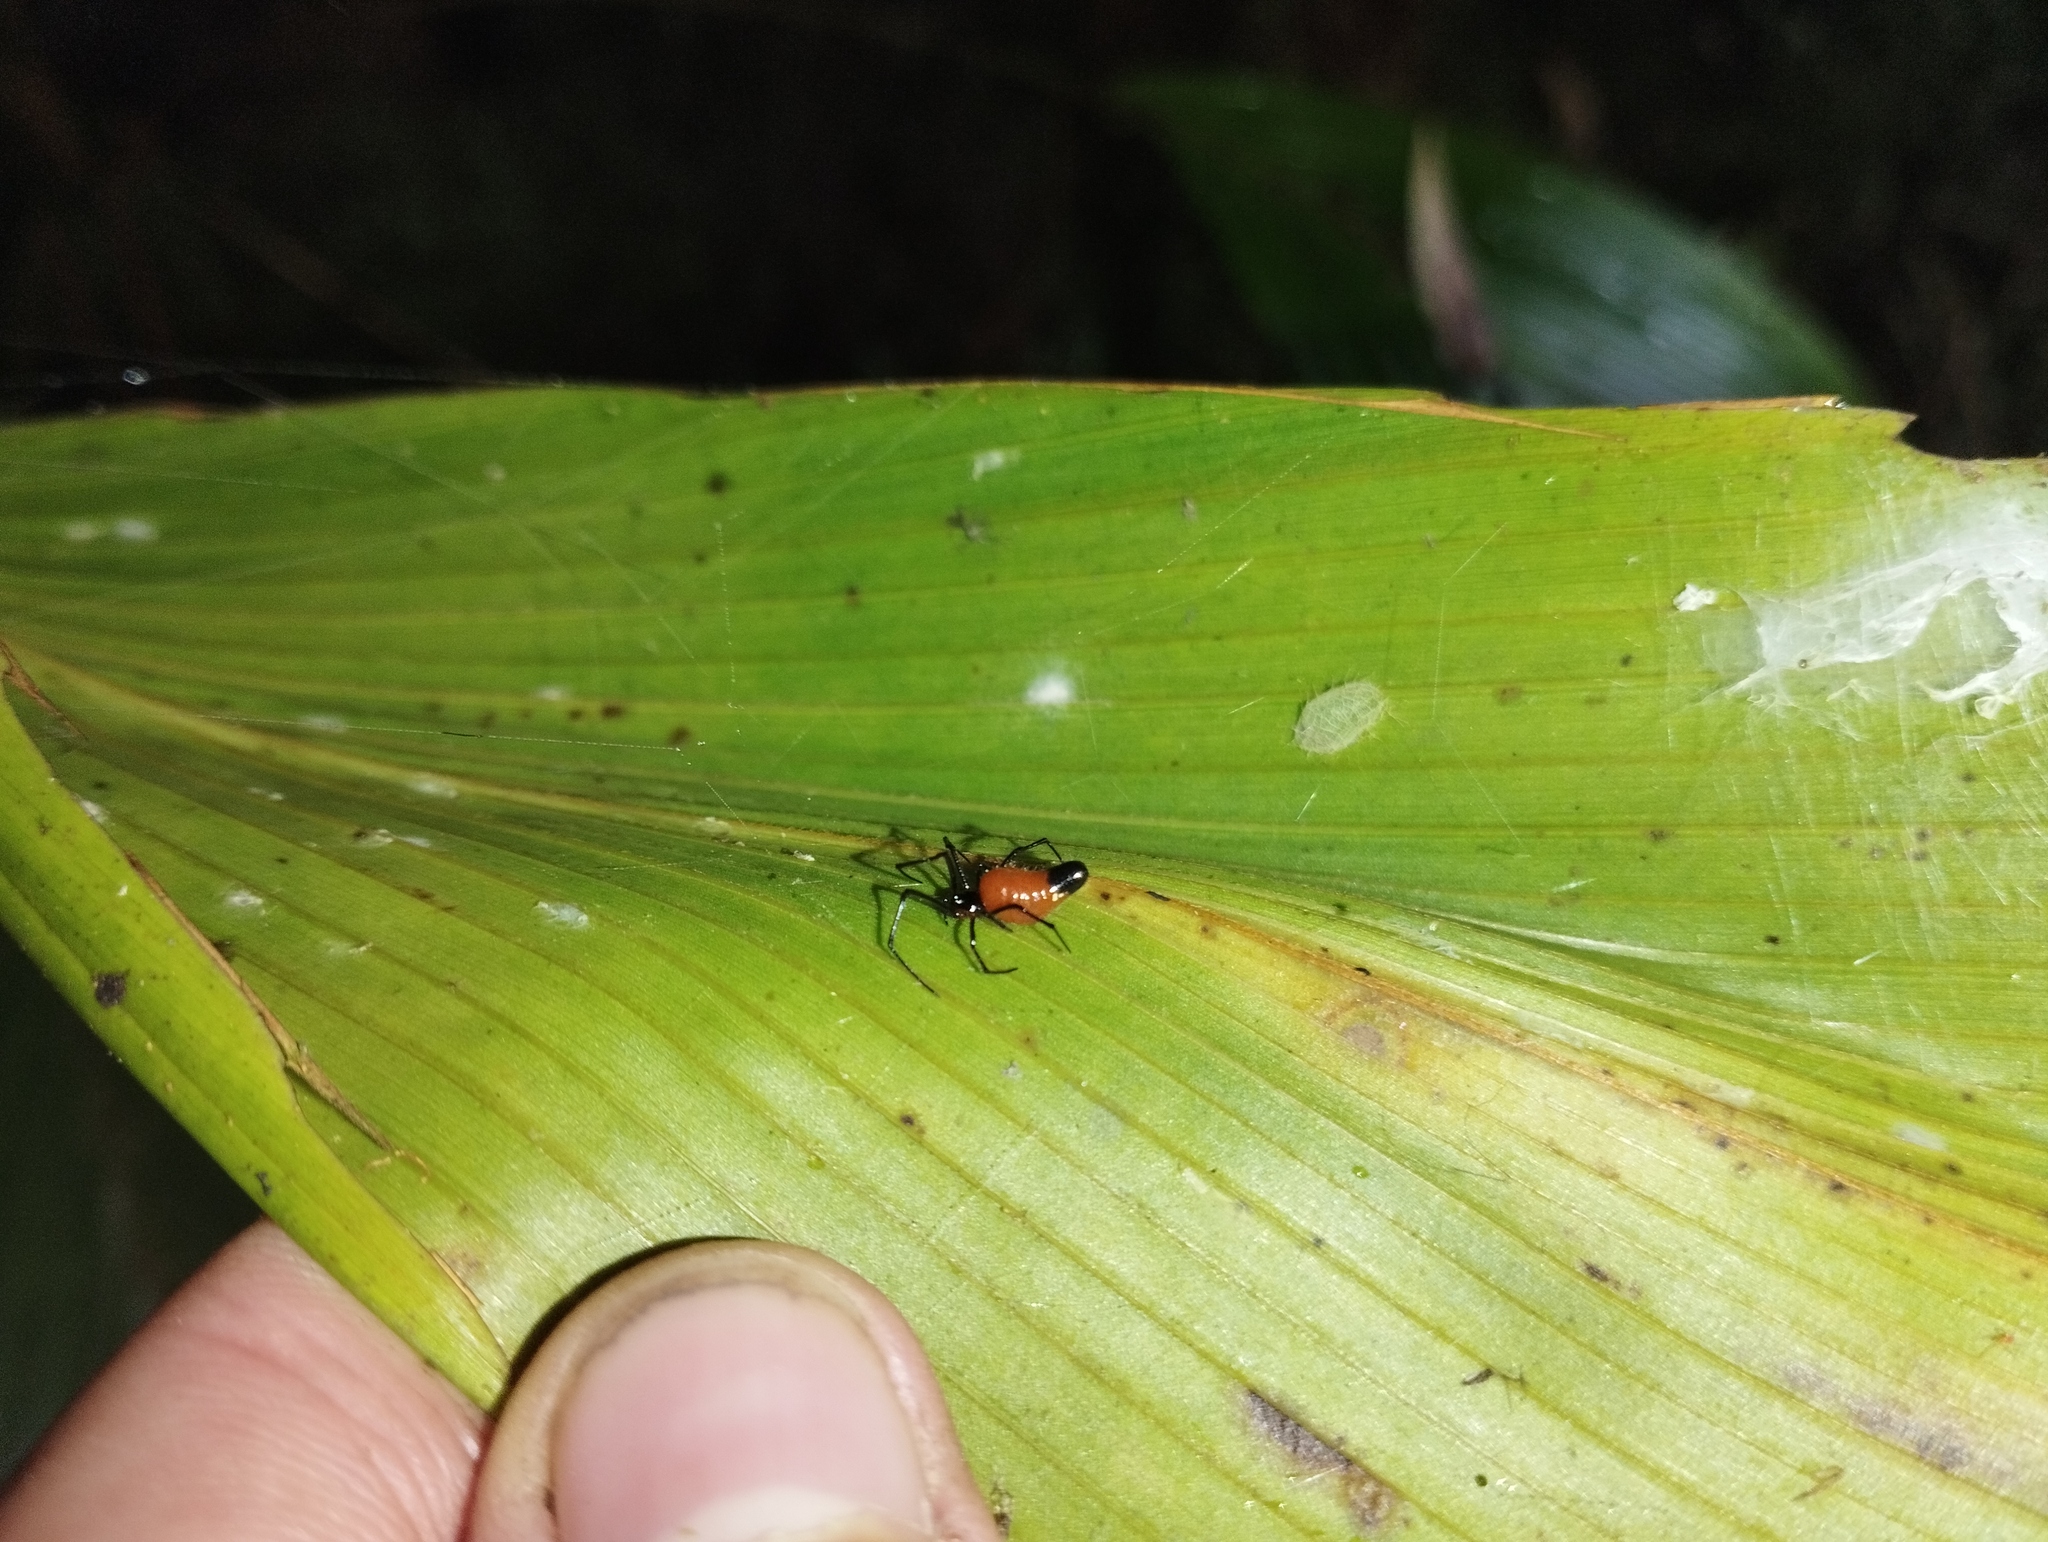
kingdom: Animalia
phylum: Arthropoda
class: Arachnida
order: Araneae
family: Theridiidae
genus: Chrysso
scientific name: Chrysso nigriceps
